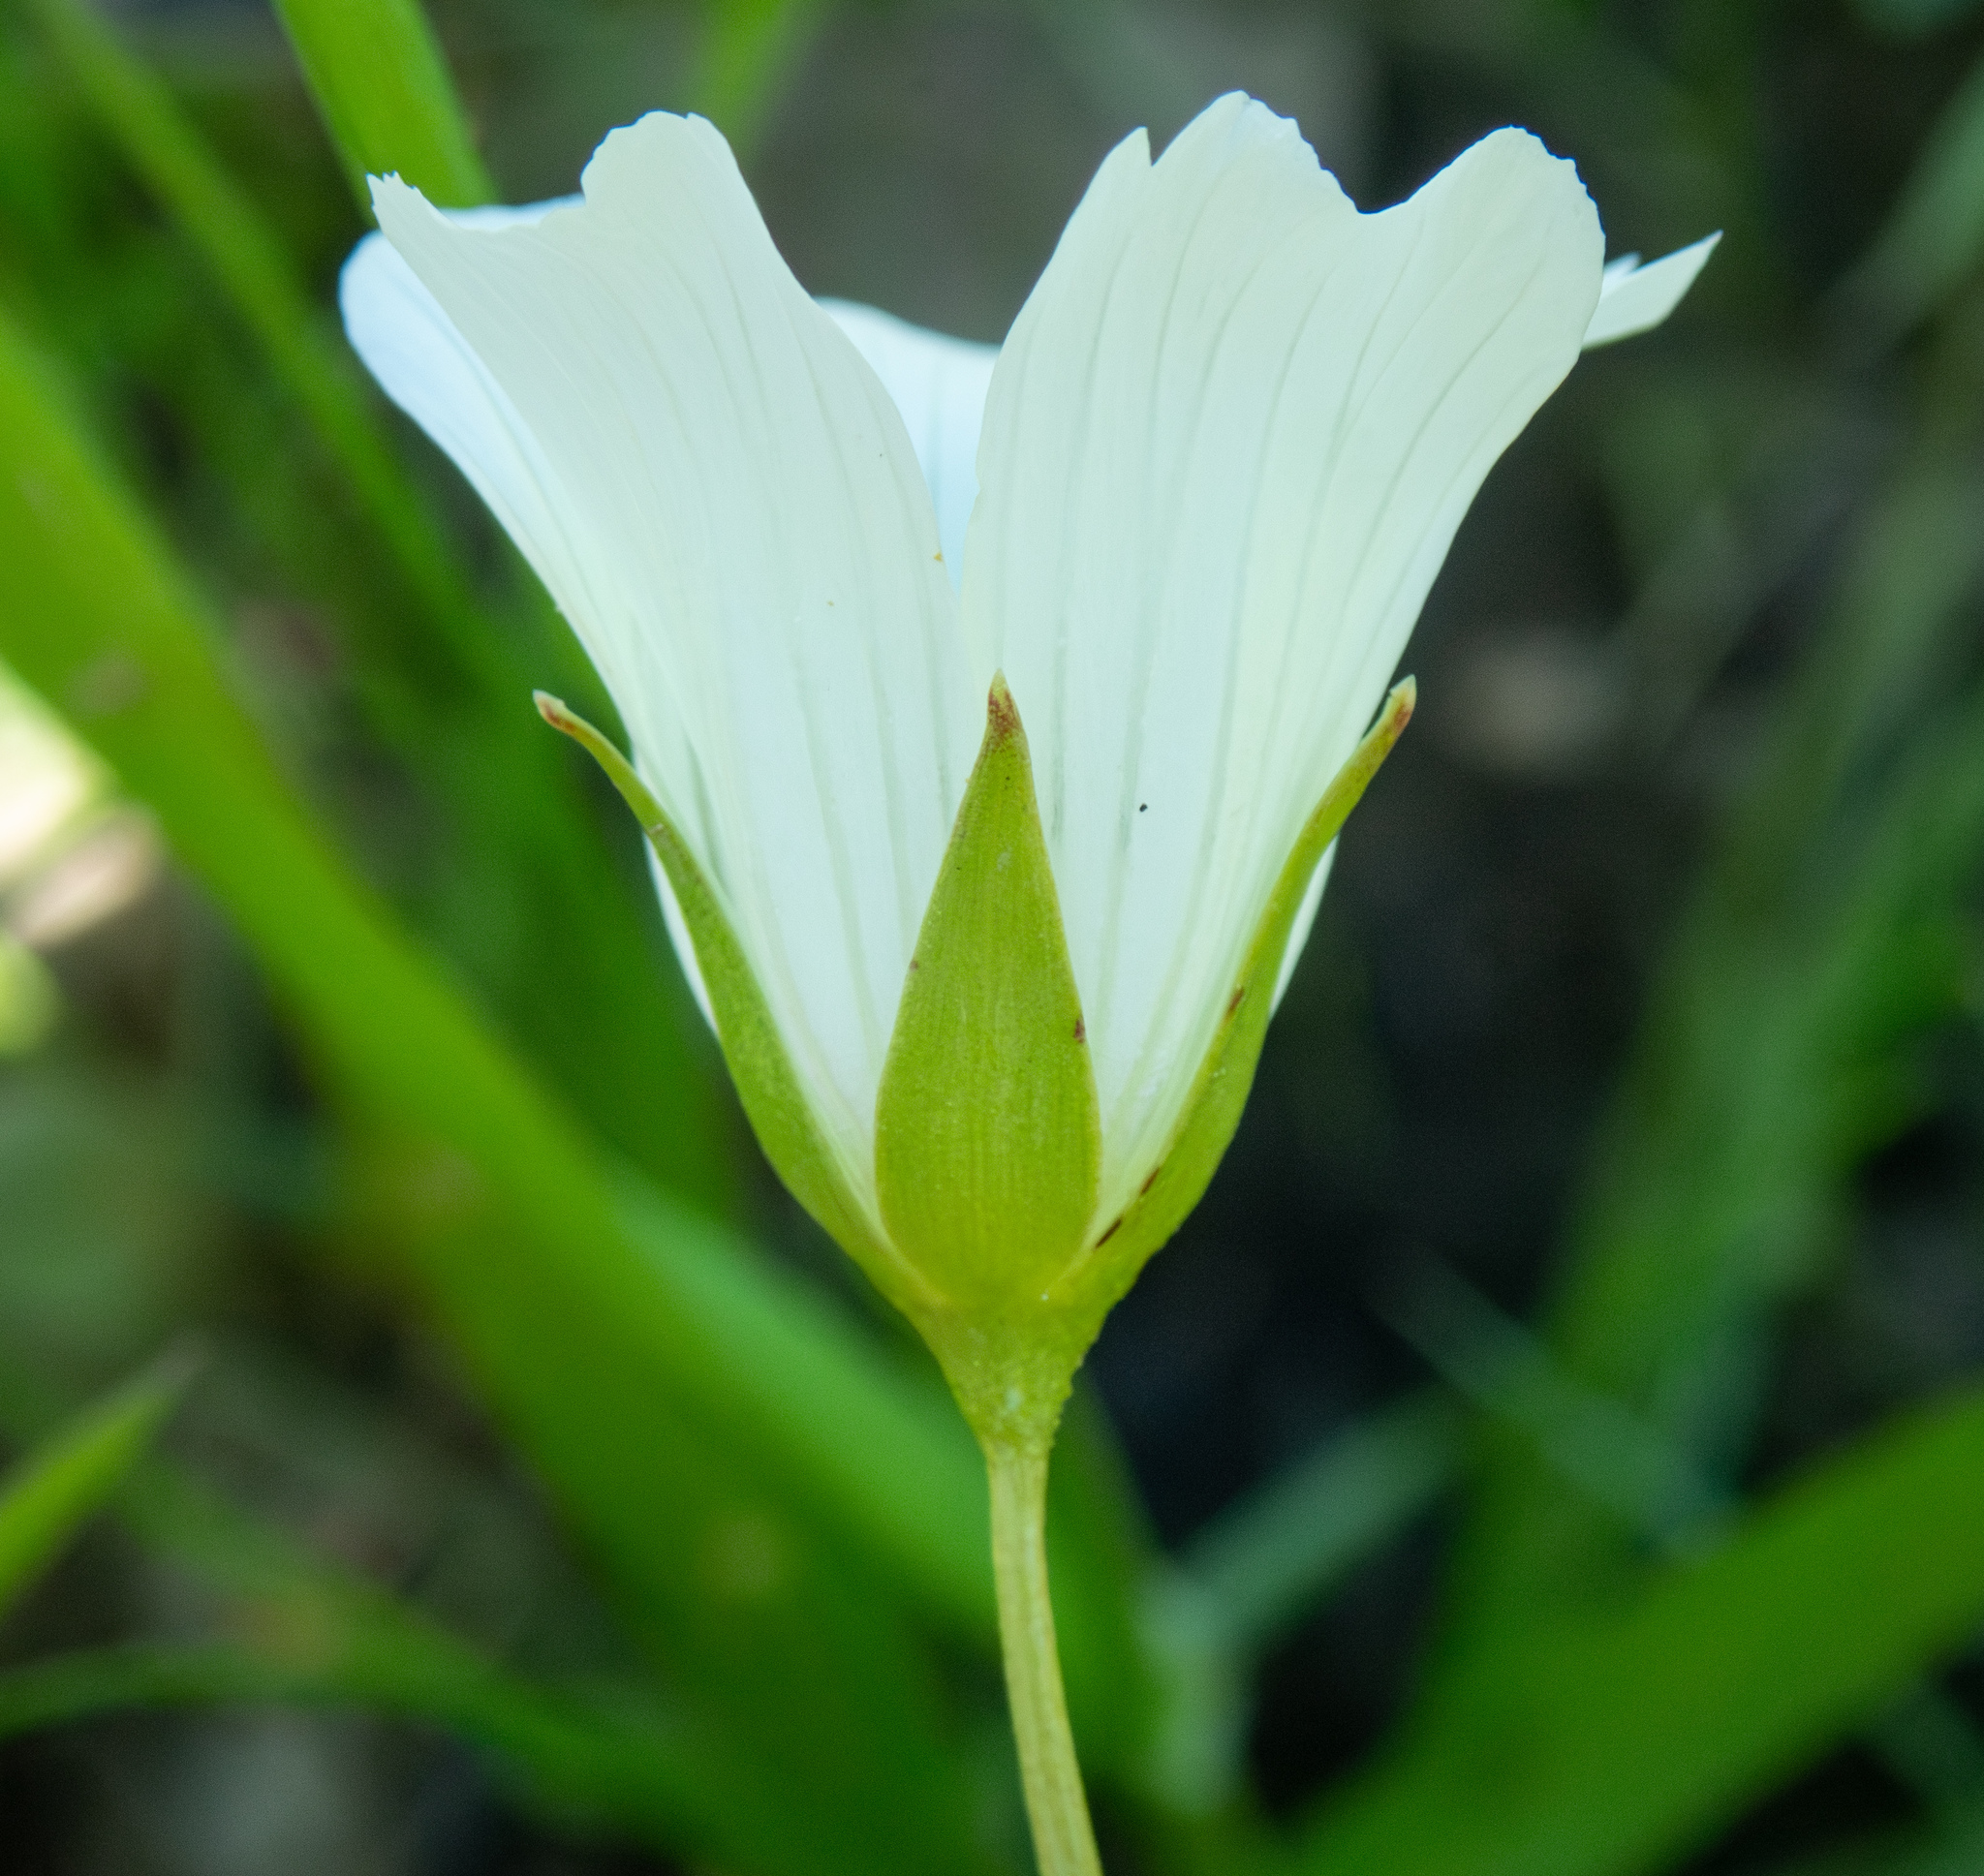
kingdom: Plantae
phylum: Tracheophyta
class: Magnoliopsida
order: Brassicales
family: Limnanthaceae
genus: Limnanthes
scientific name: Limnanthes alba
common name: Meadowfoam
